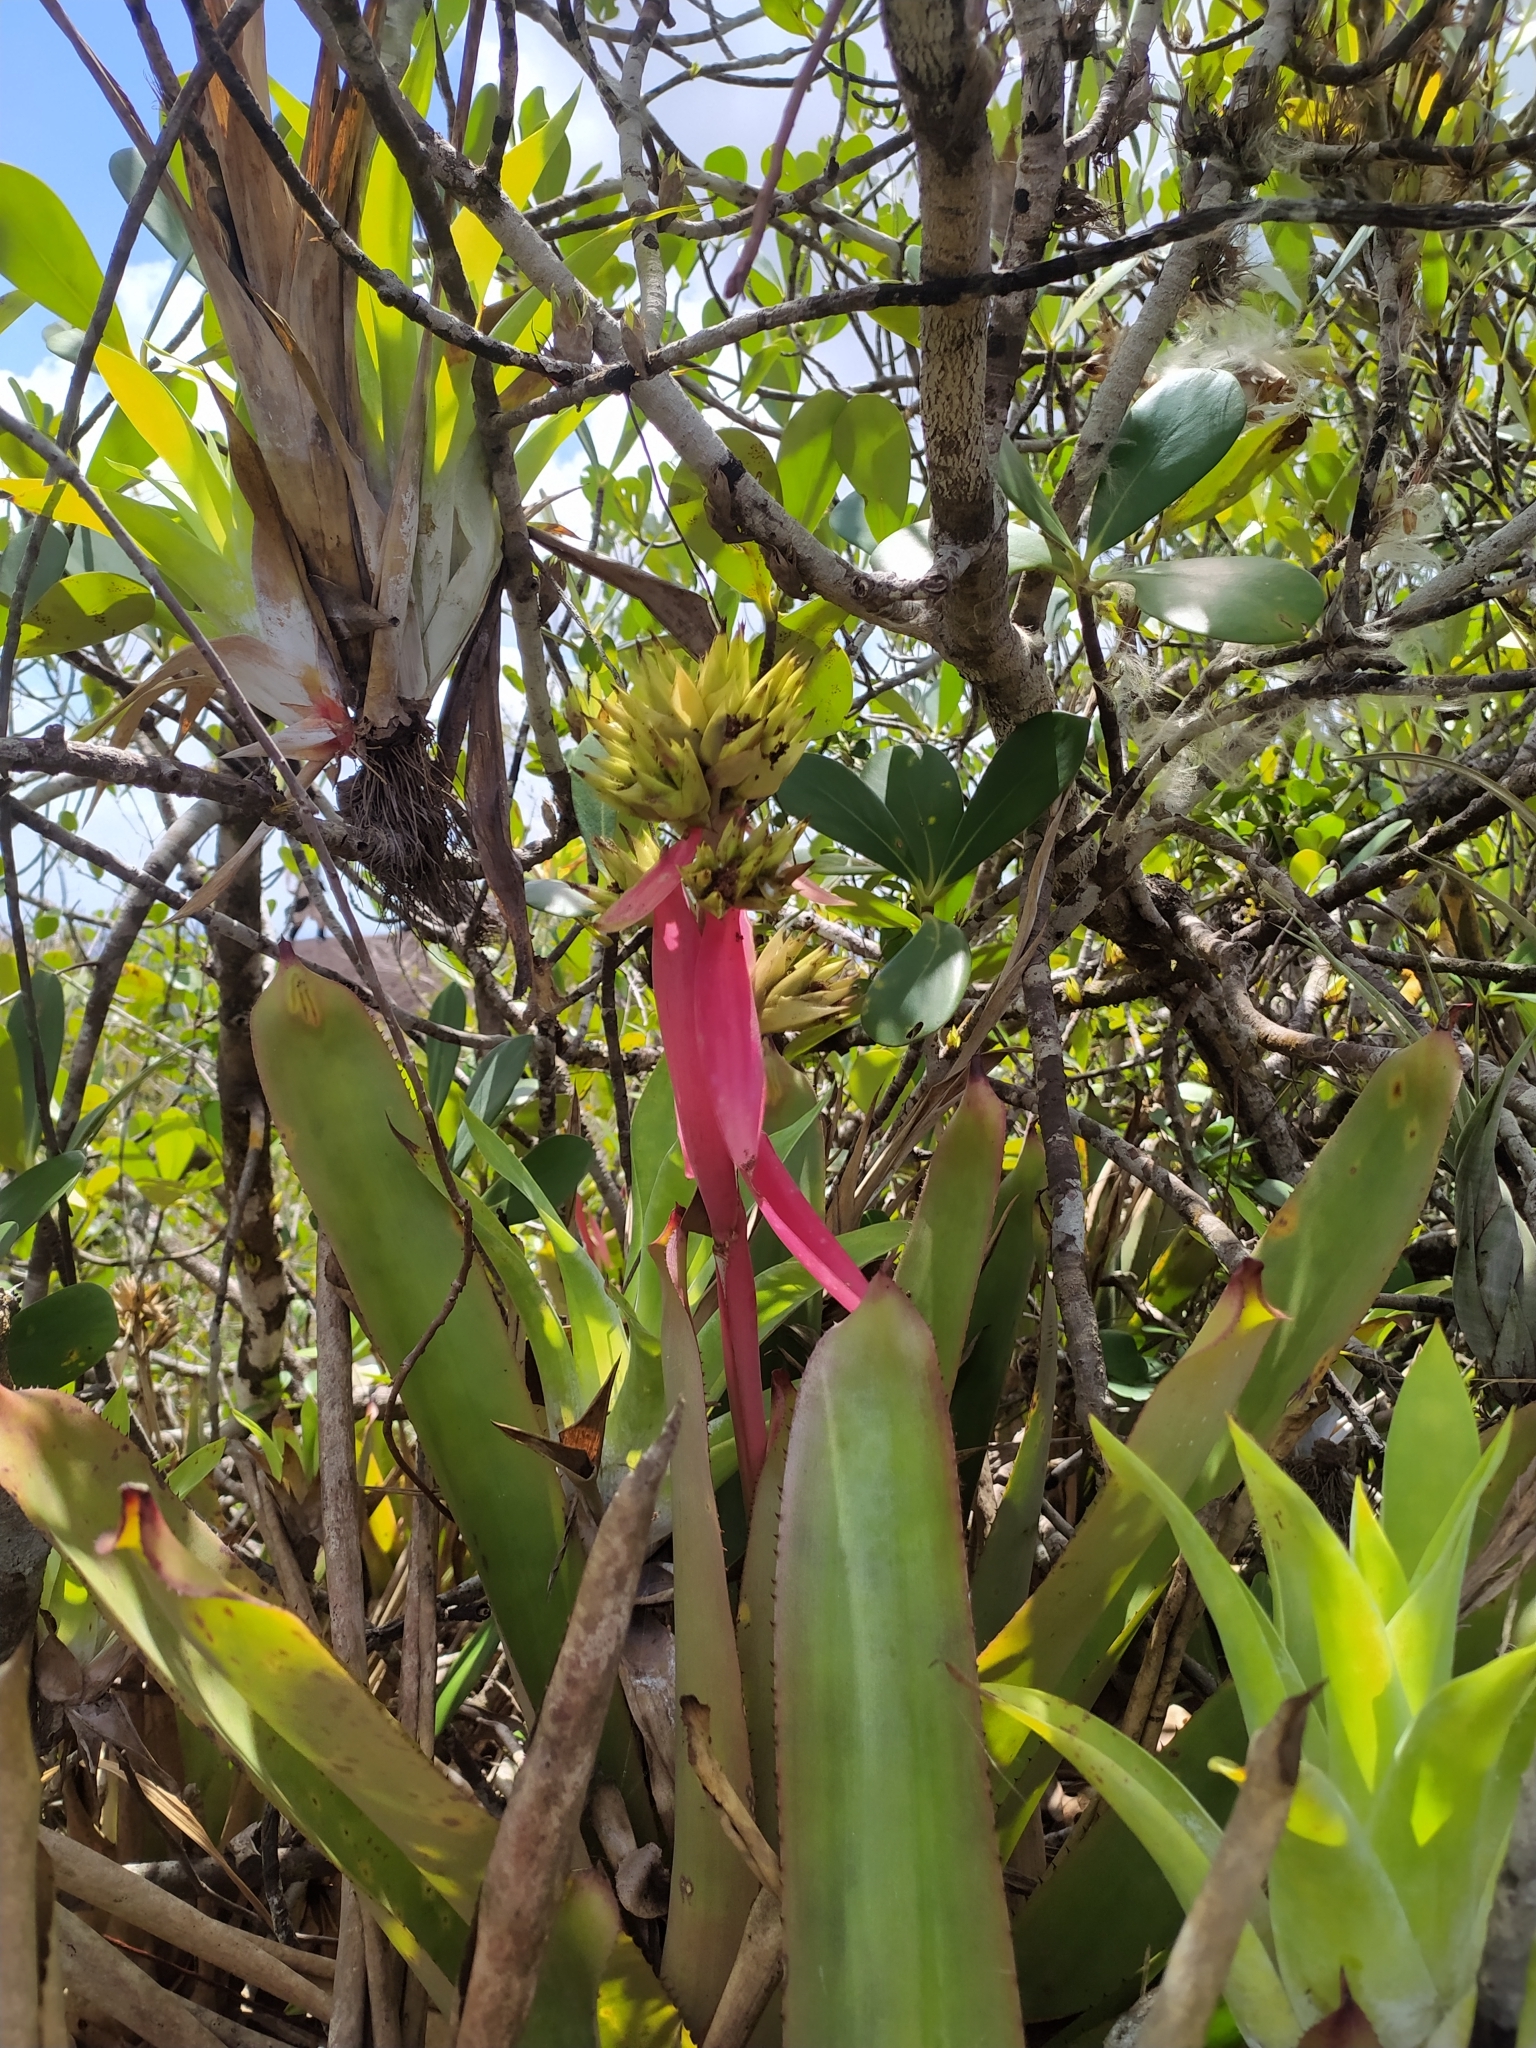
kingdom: Plantae
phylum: Tracheophyta
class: Liliopsida
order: Poales
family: Bromeliaceae
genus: Aechmea
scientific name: Aechmea aquilega
